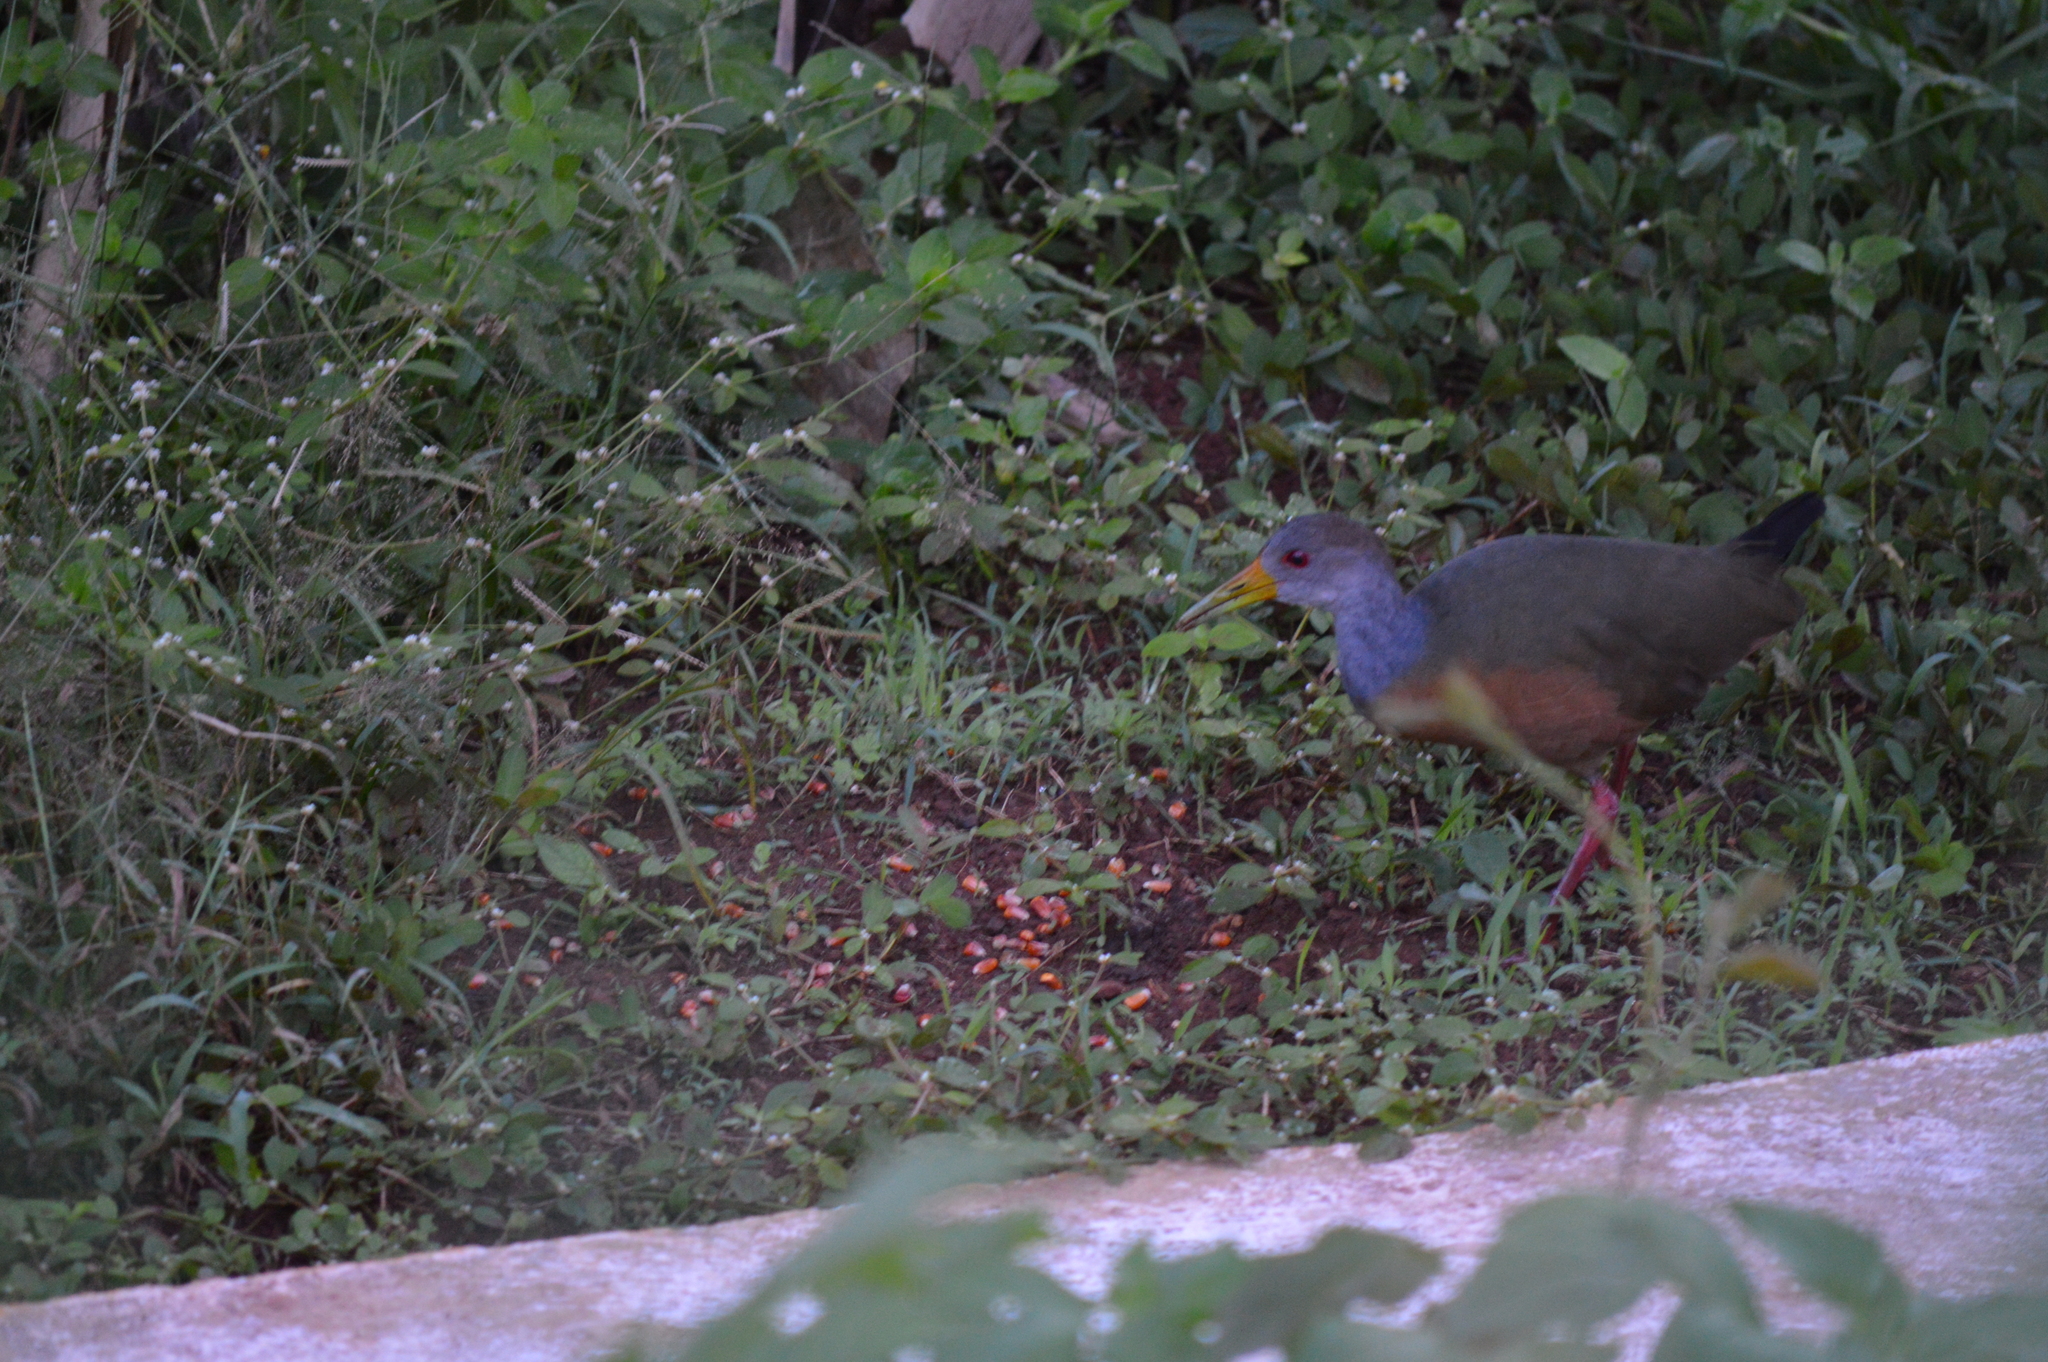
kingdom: Animalia
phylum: Chordata
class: Aves
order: Gruiformes
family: Rallidae
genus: Aramides
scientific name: Aramides cajanea
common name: Gray-necked wood-rail
